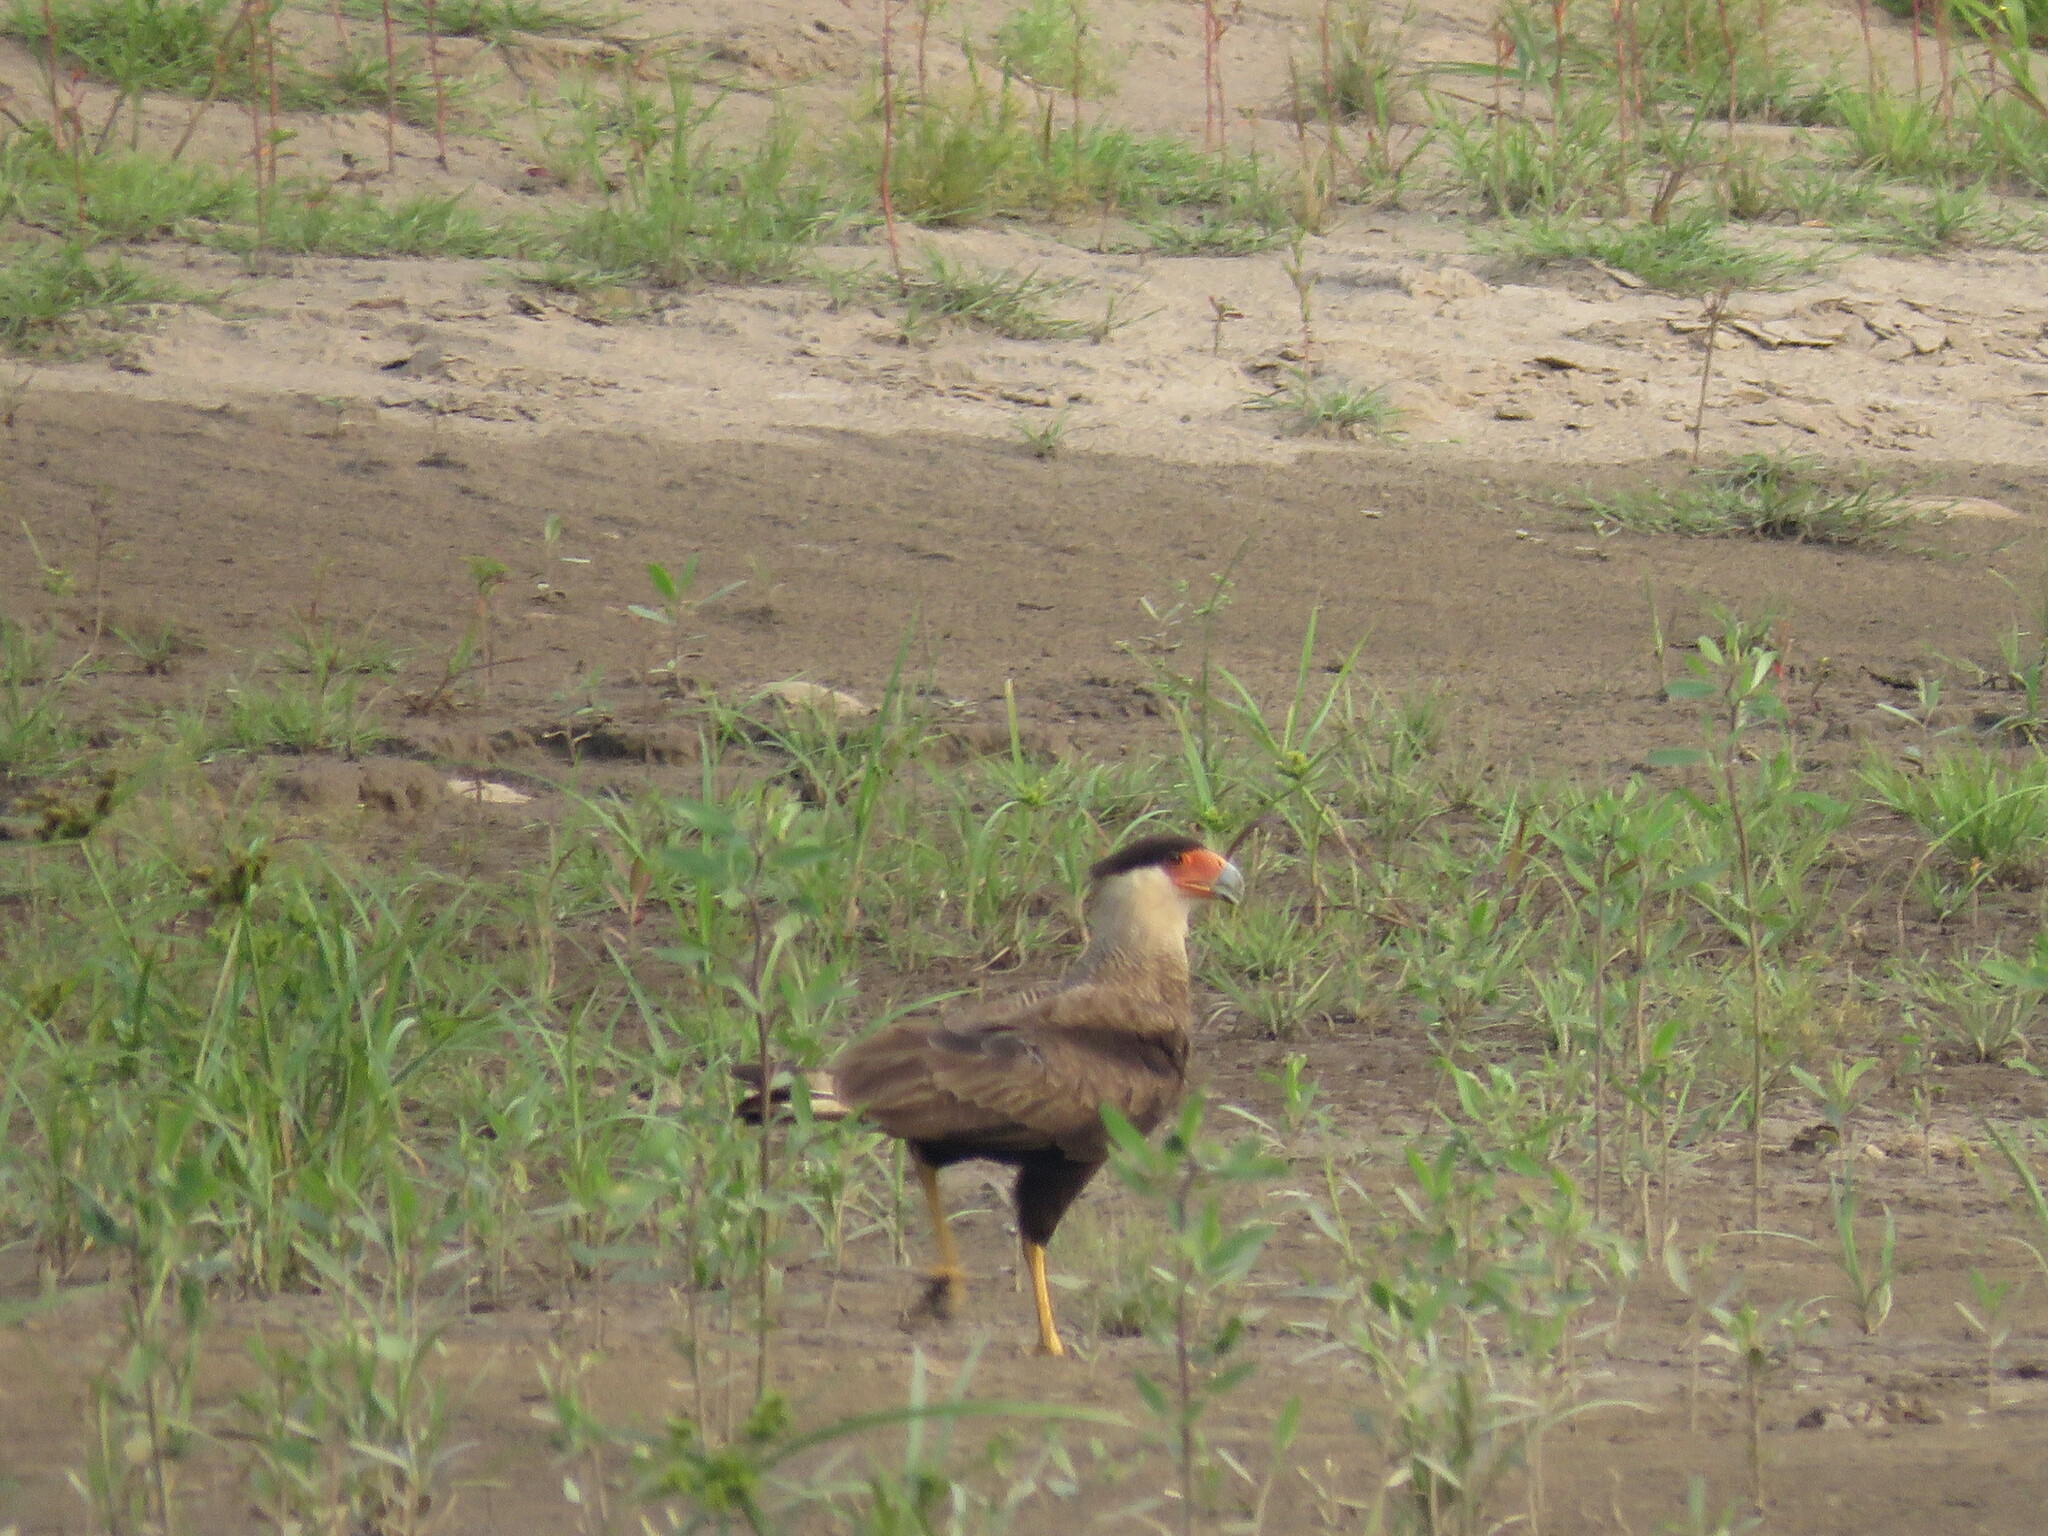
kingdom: Animalia
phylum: Chordata
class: Aves
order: Falconiformes
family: Falconidae
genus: Caracara
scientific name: Caracara plancus
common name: Southern caracara
